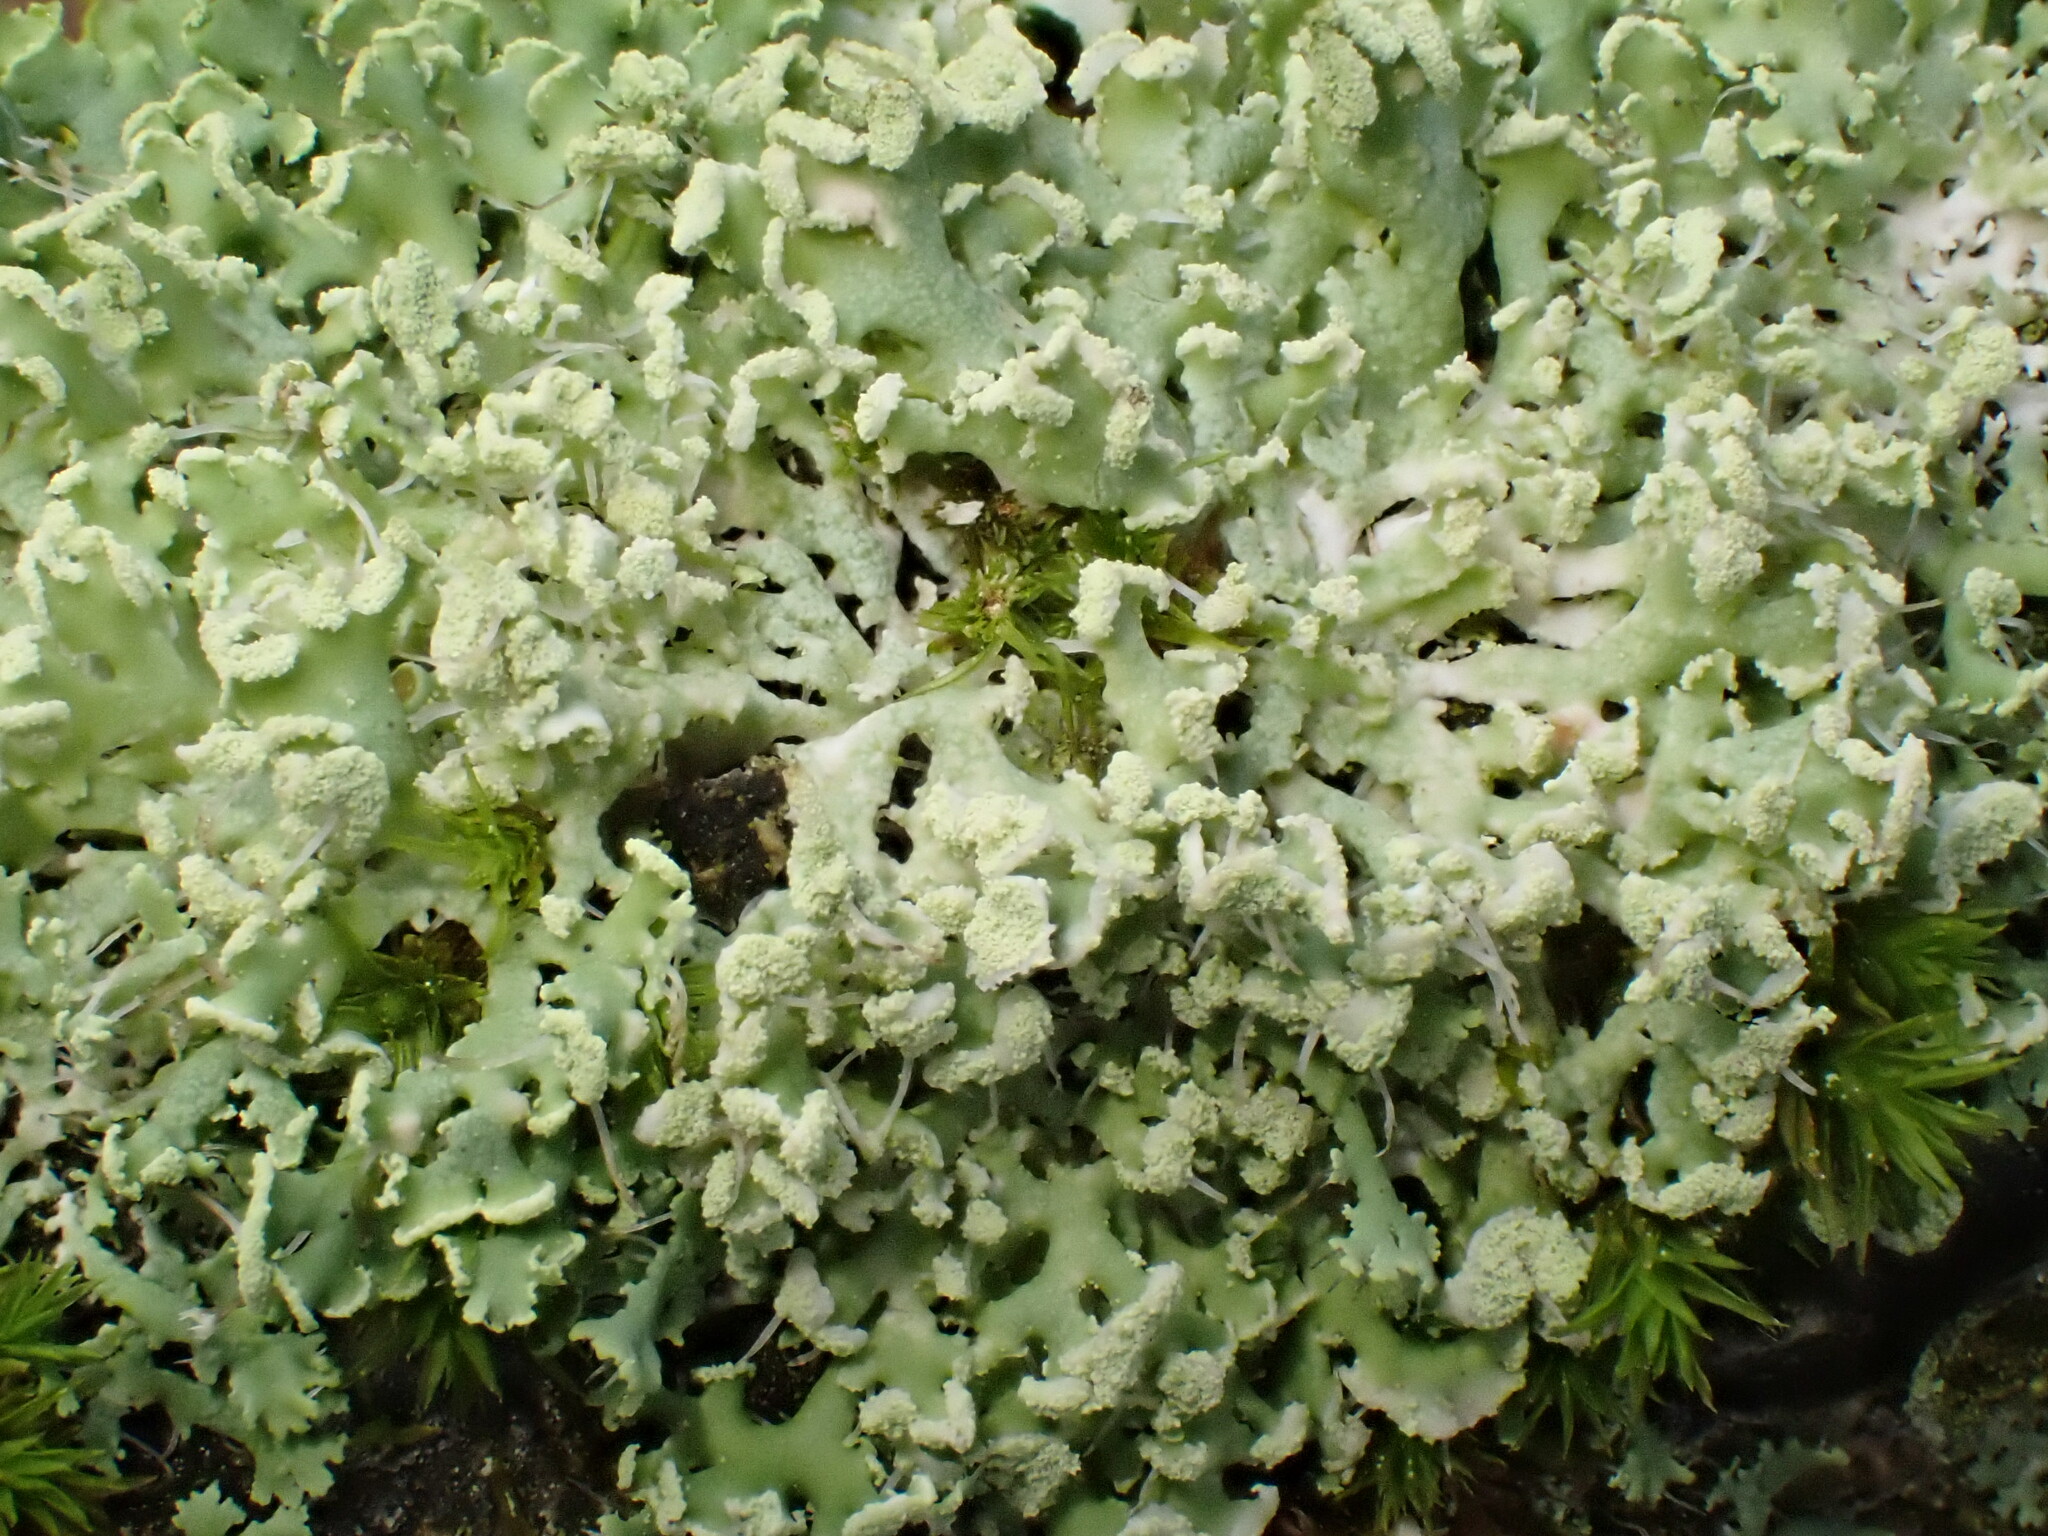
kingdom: Fungi
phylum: Ascomycota
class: Lecanoromycetes
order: Caliciales
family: Physciaceae
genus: Physcia
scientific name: Physcia tenella
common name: Fringed rosette lichen
